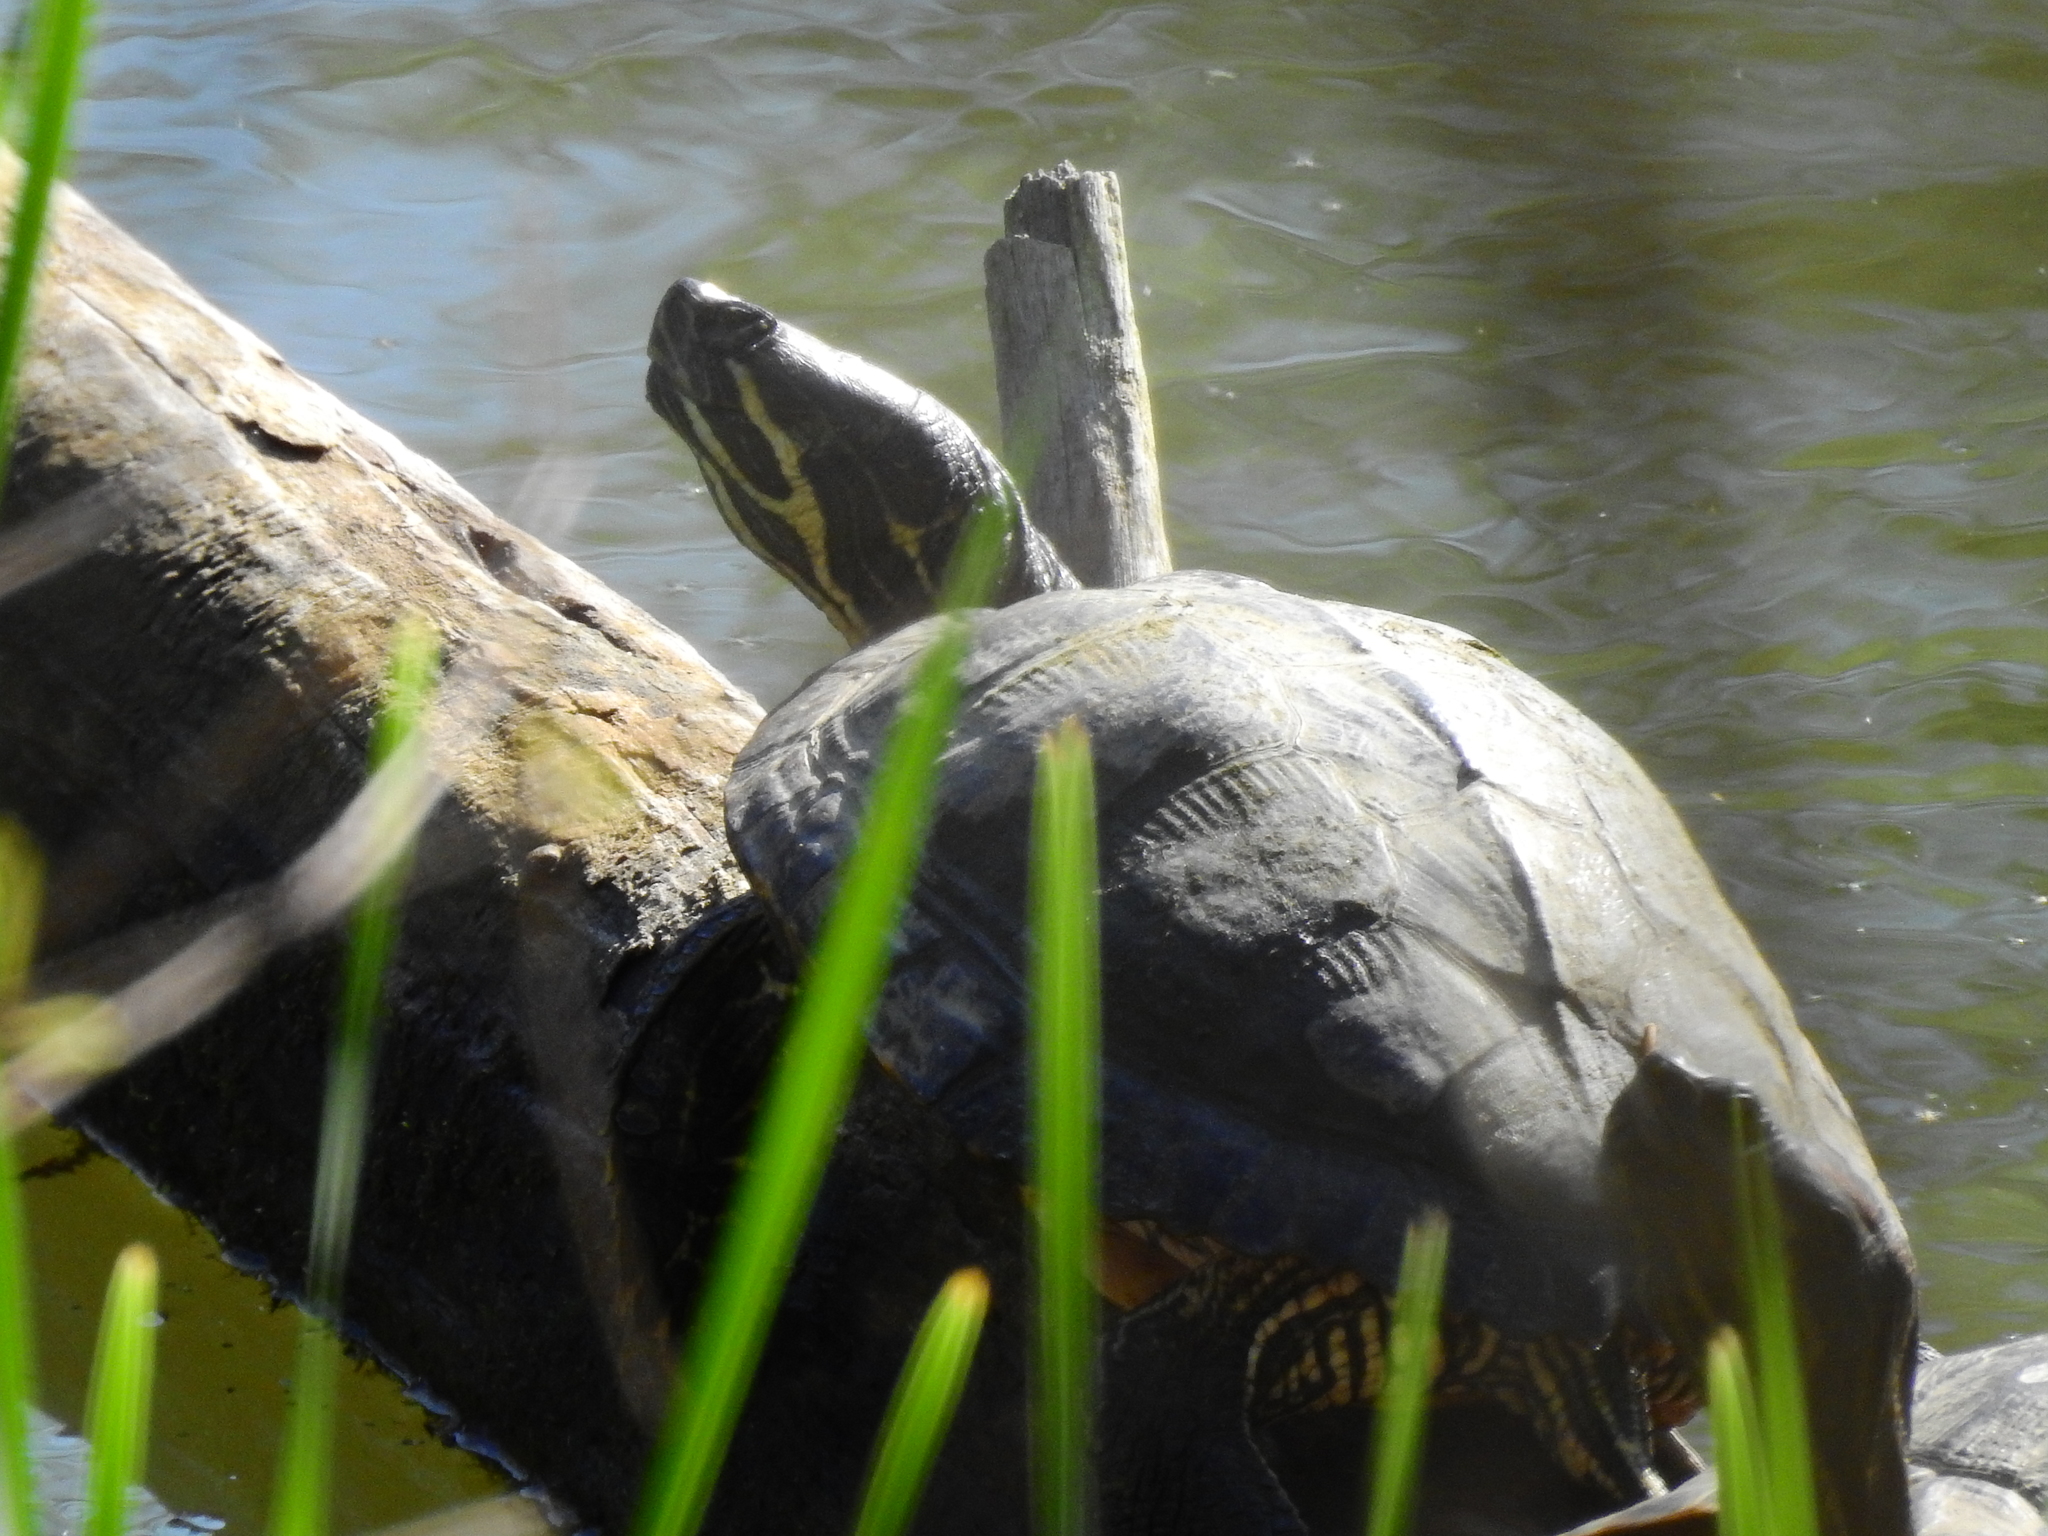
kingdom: Animalia
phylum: Chordata
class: Testudines
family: Emydidae
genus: Trachemys
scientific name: Trachemys scripta
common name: Slider
